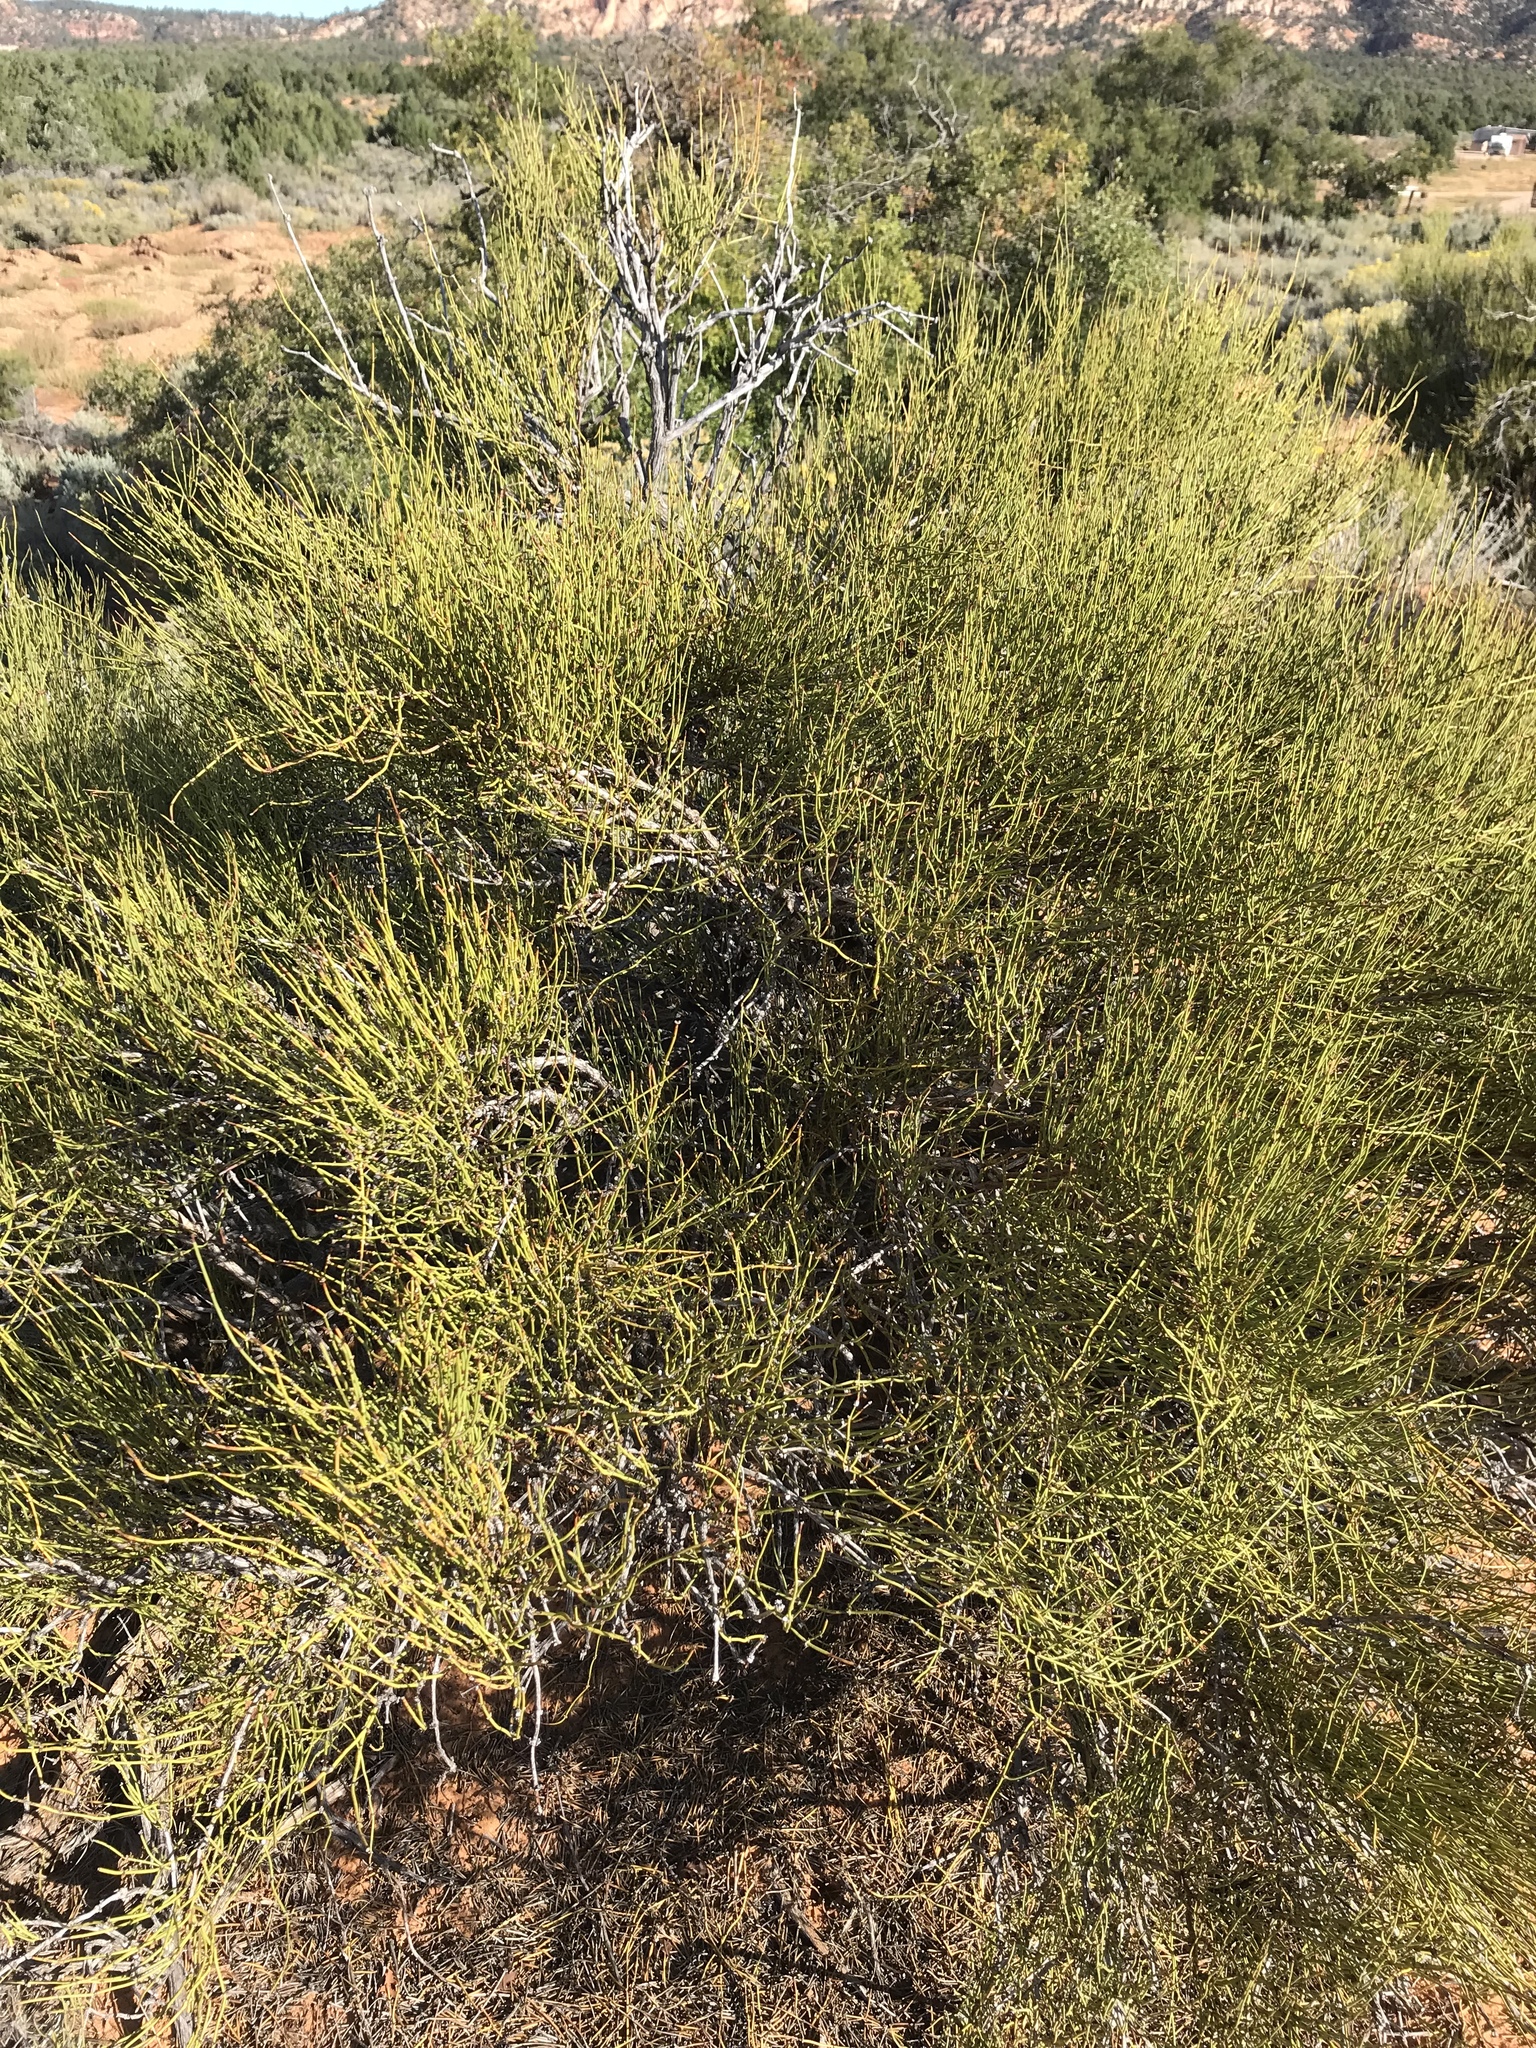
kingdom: Plantae
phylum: Tracheophyta
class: Gnetopsida
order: Ephedrales
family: Ephedraceae
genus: Ephedra
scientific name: Ephedra viridis
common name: Green ephedra
